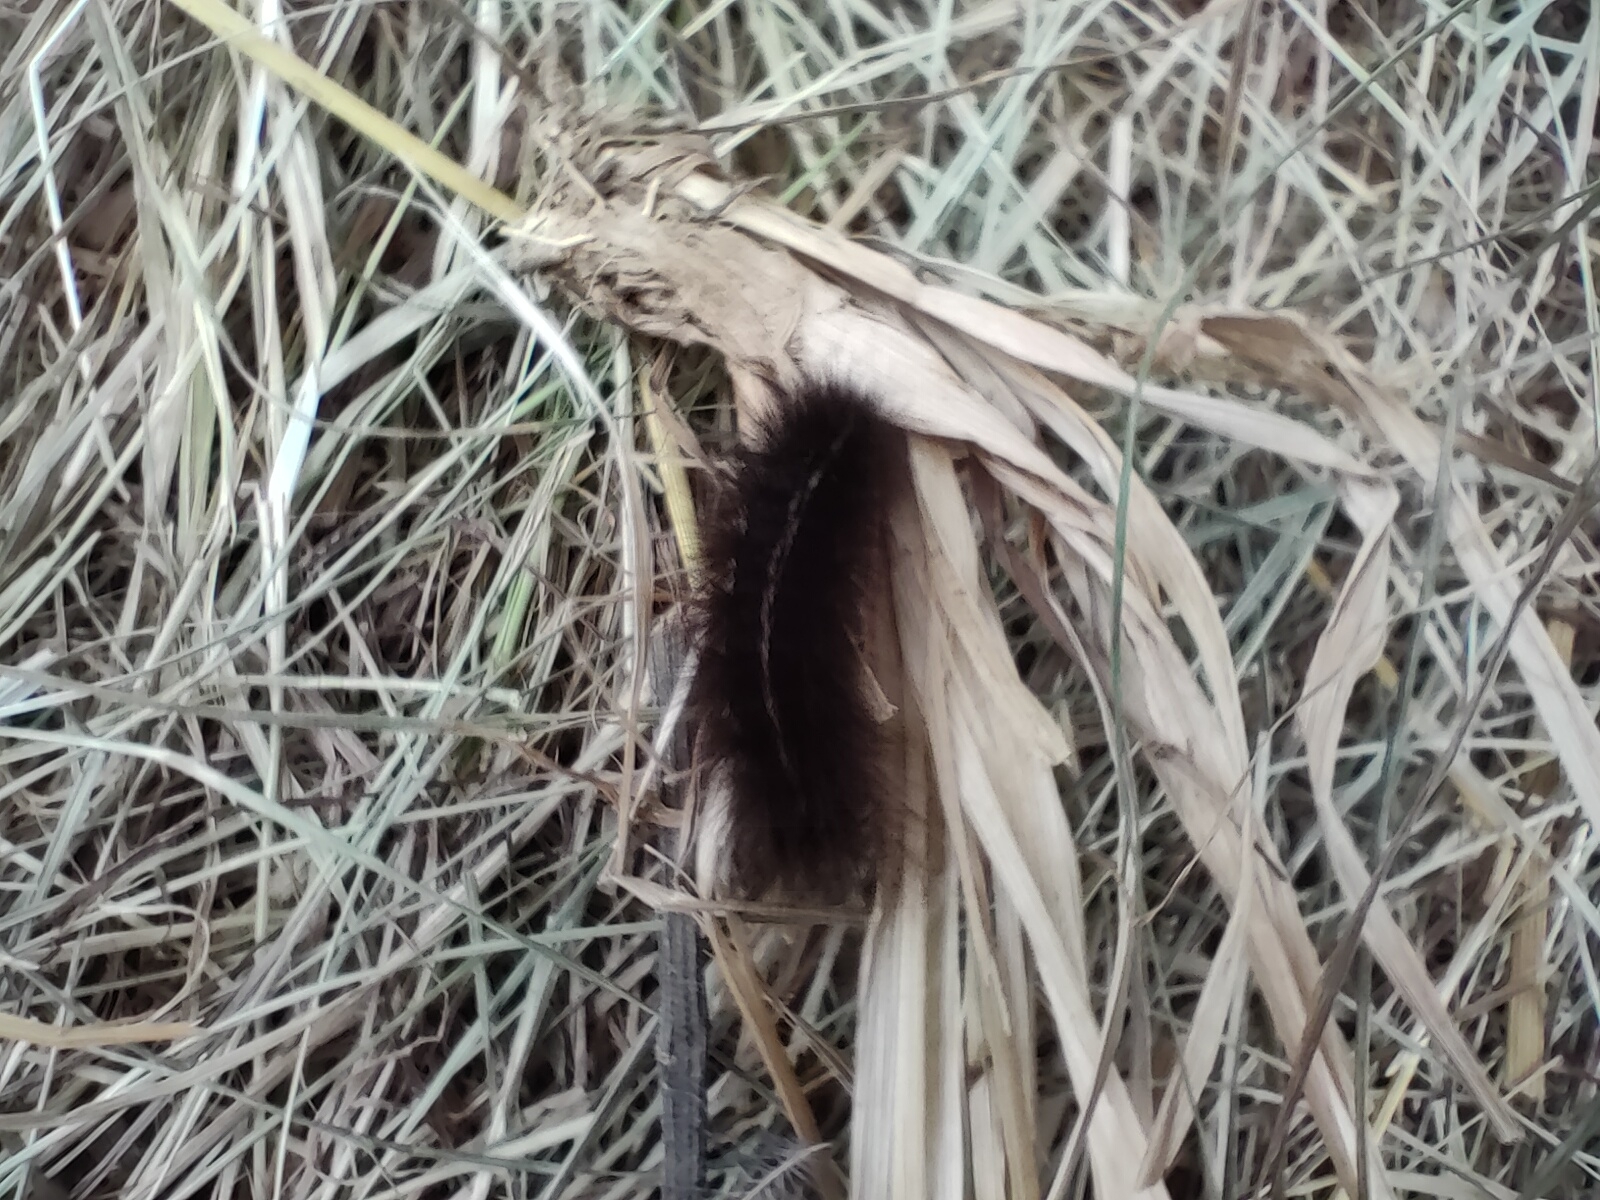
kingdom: Animalia
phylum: Arthropoda
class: Insecta
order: Lepidoptera
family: Erebidae
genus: Spilosoma
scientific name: Spilosoma lubricipeda
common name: White ermine
